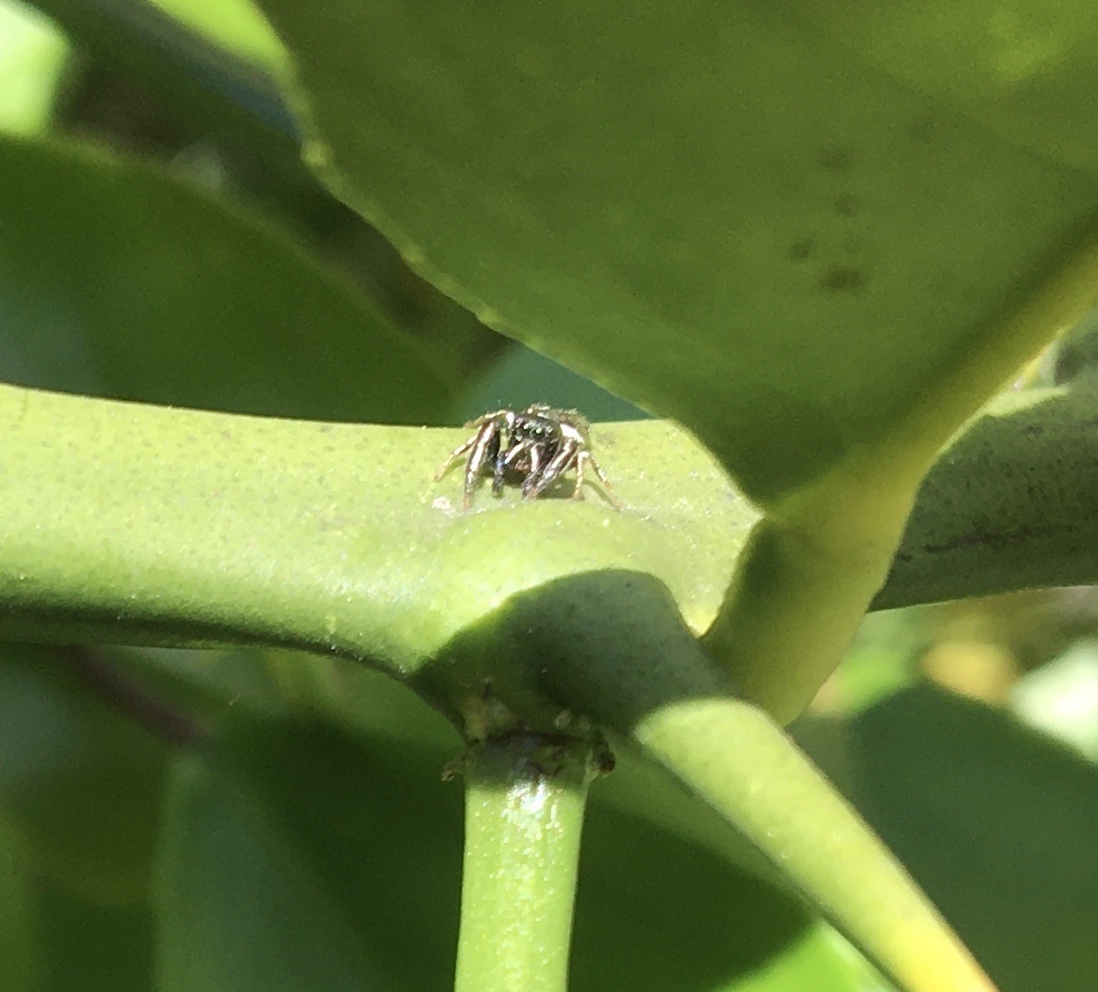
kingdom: Animalia
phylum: Arthropoda
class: Arachnida
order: Araneae
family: Salticidae
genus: Sassacus
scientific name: Sassacus vitis
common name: Jumping spiders
